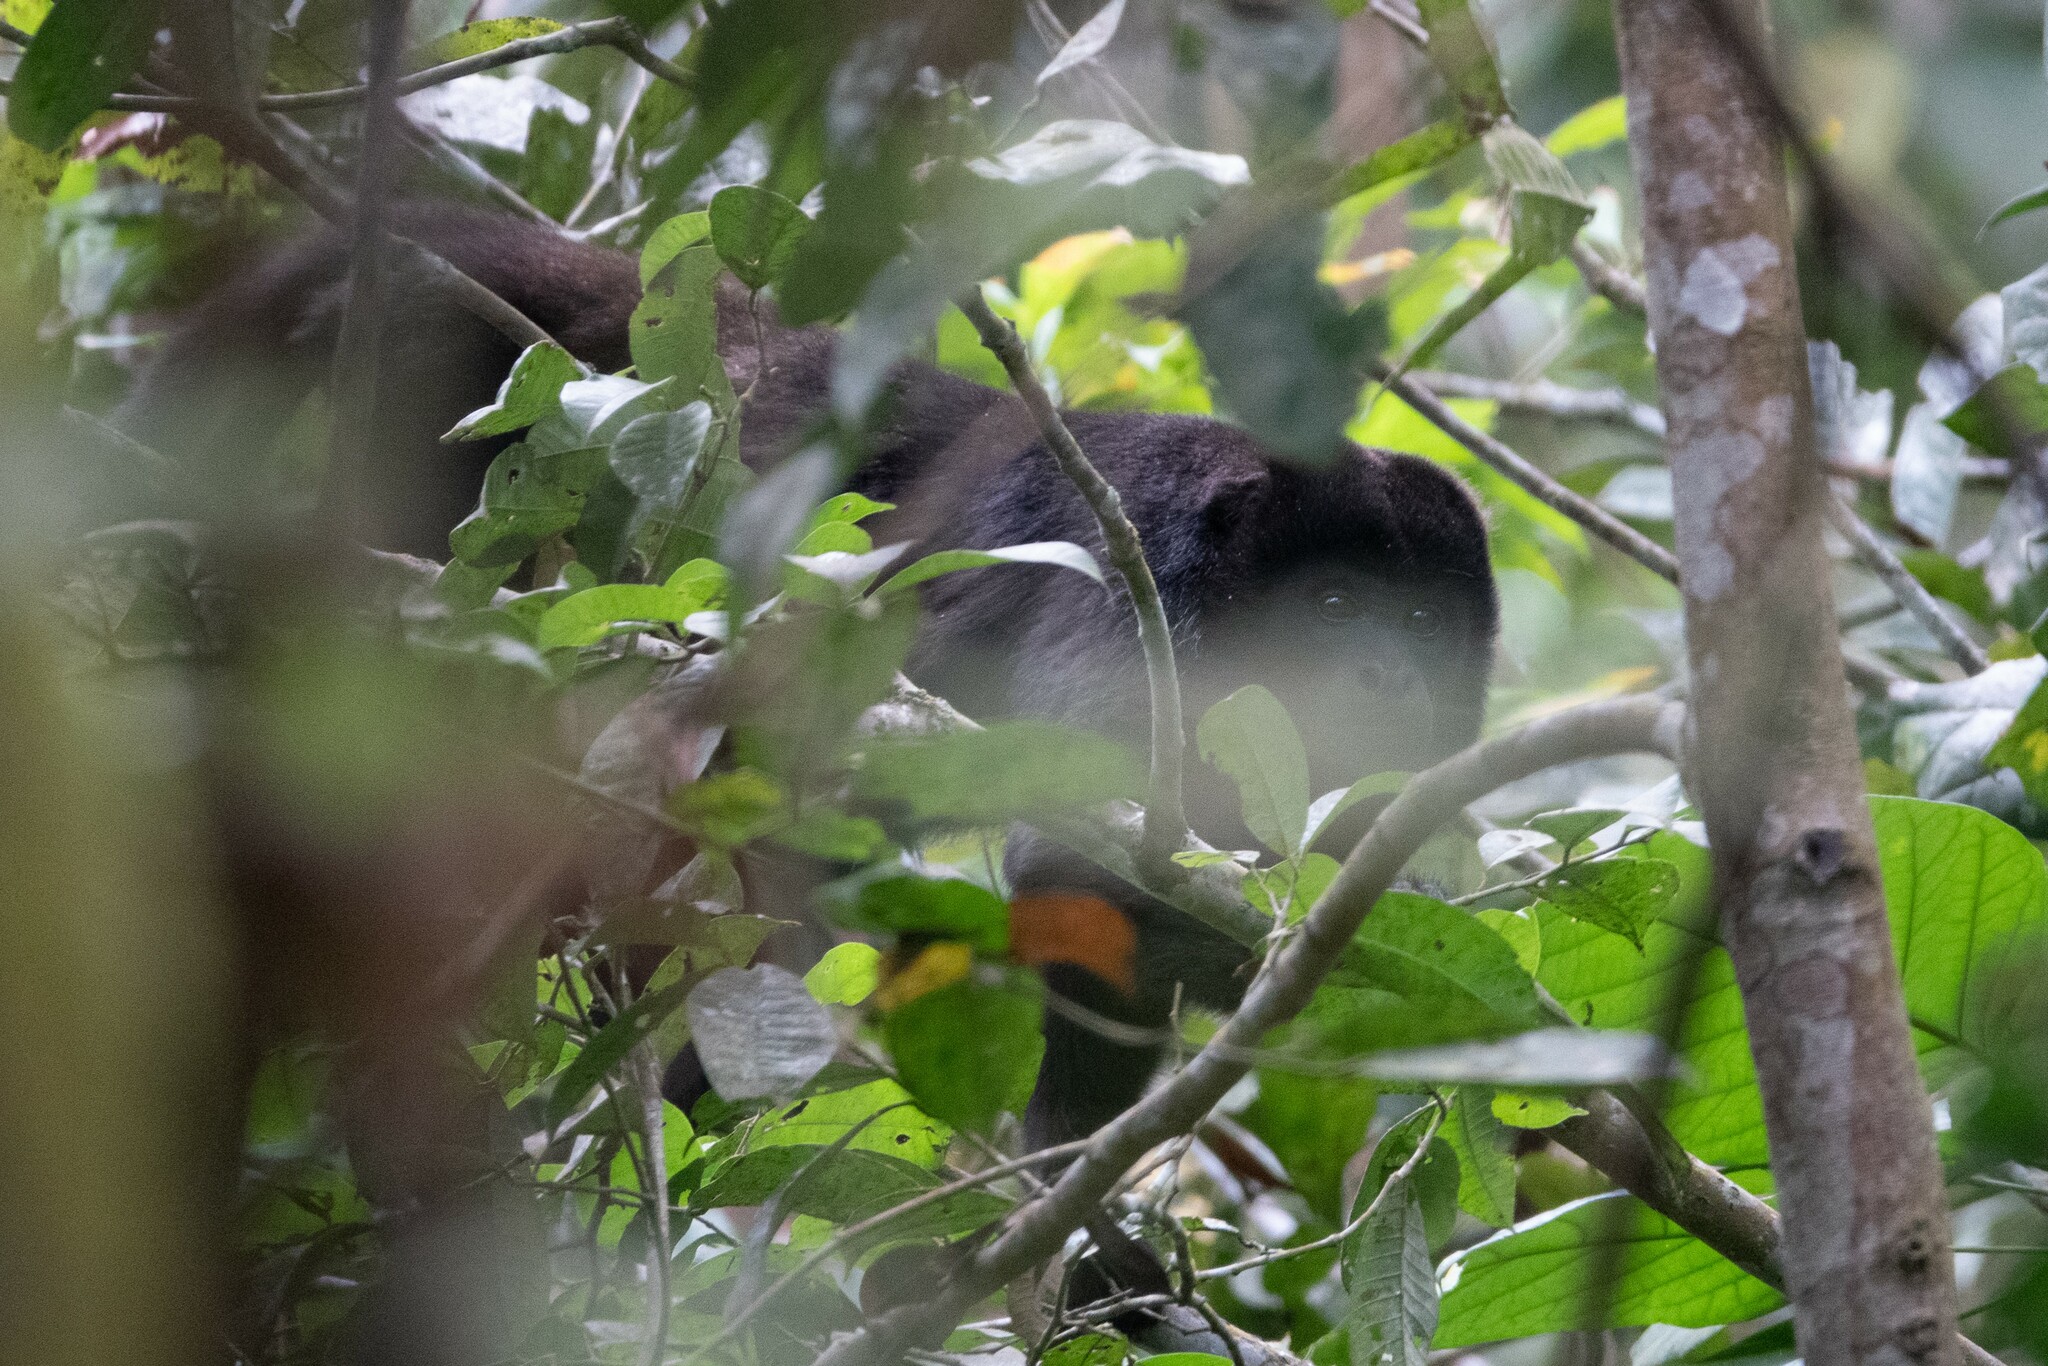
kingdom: Animalia
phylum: Chordata
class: Mammalia
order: Primates
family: Atelidae
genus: Alouatta
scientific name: Alouatta palliata
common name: Mantled howler
